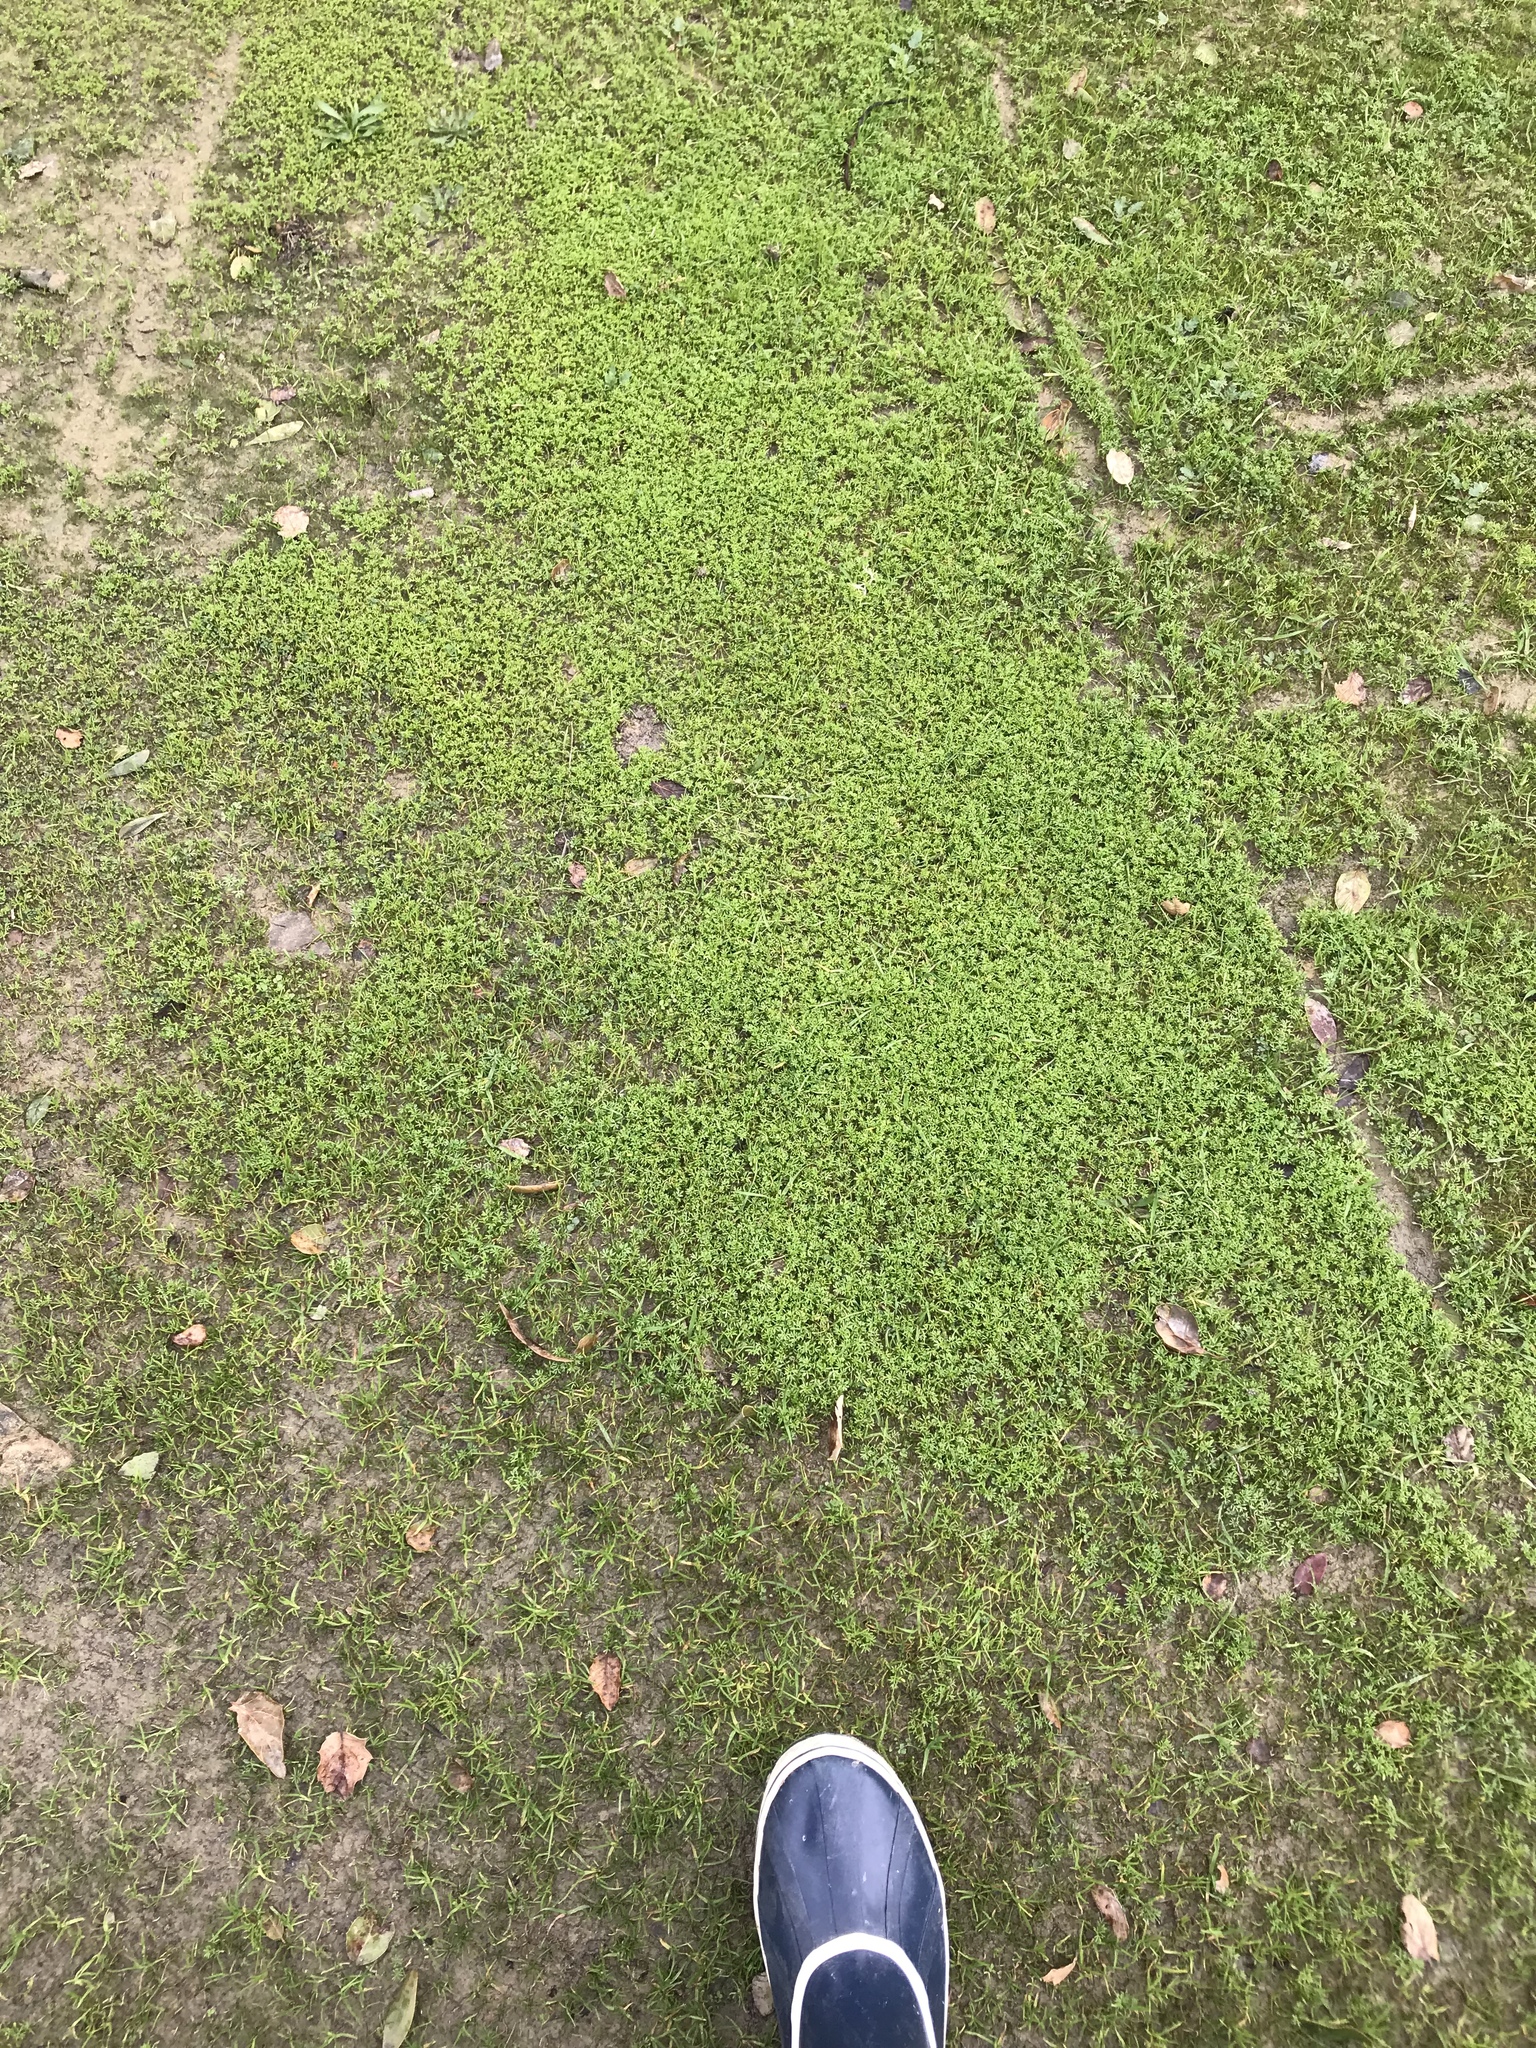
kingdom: Plantae
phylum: Tracheophyta
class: Magnoliopsida
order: Asterales
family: Asteraceae
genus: Soliva
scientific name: Soliva sessilis
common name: Field burrweed
